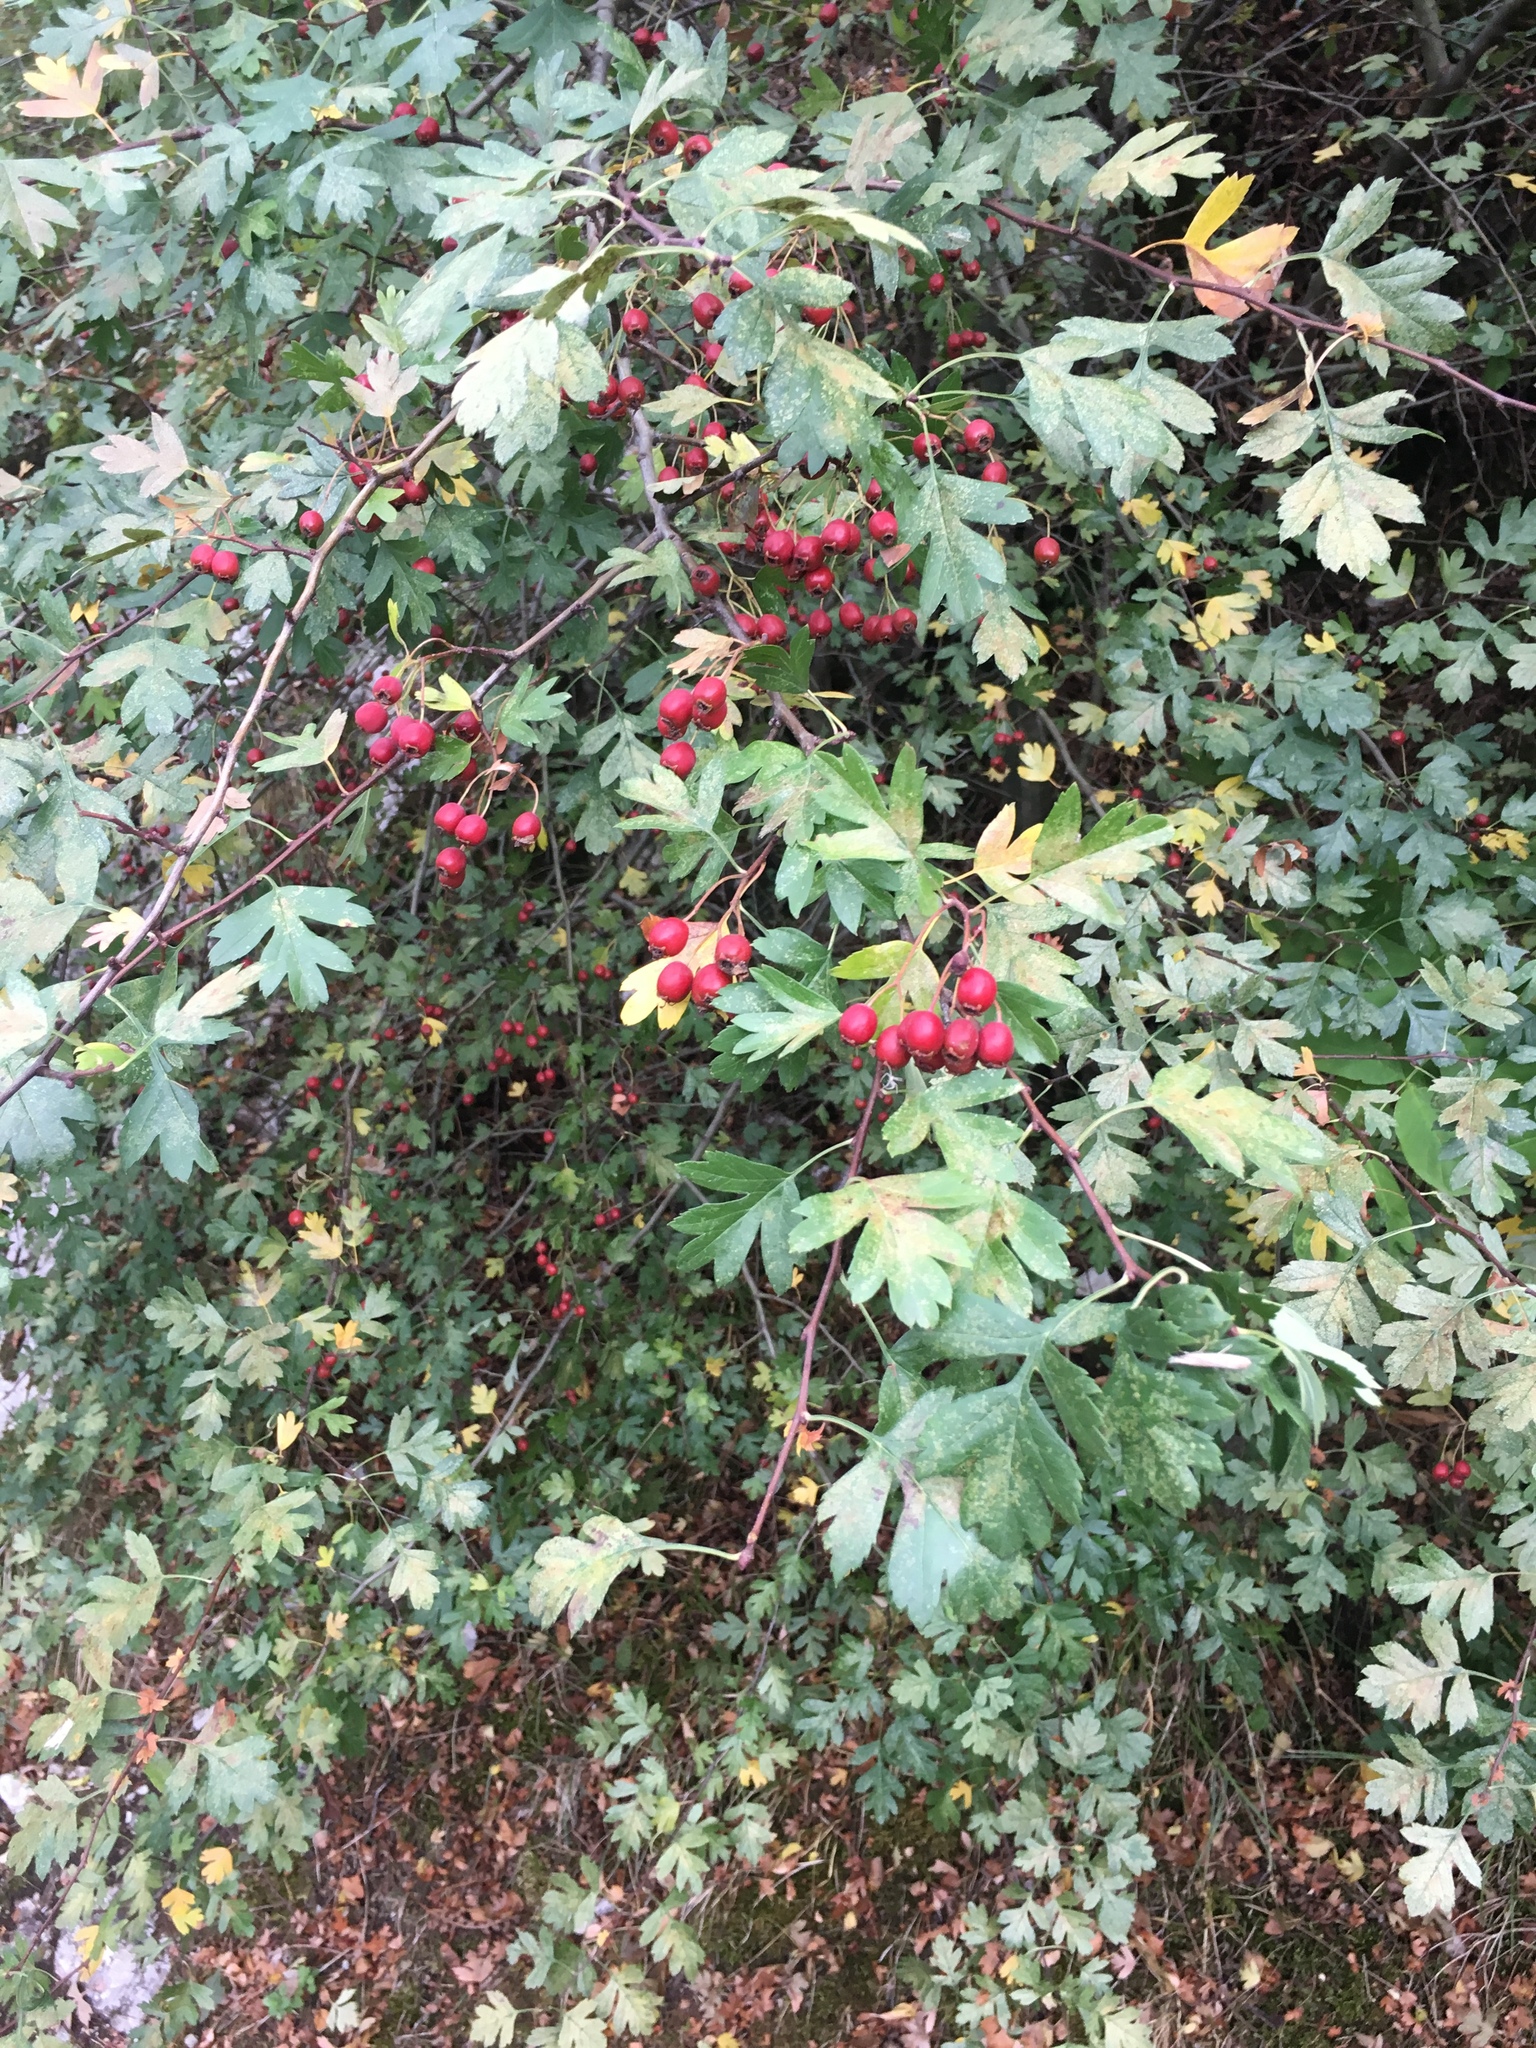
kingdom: Plantae
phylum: Tracheophyta
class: Magnoliopsida
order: Rosales
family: Rosaceae
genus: Crataegus
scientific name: Crataegus monogyna
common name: Hawthorn
